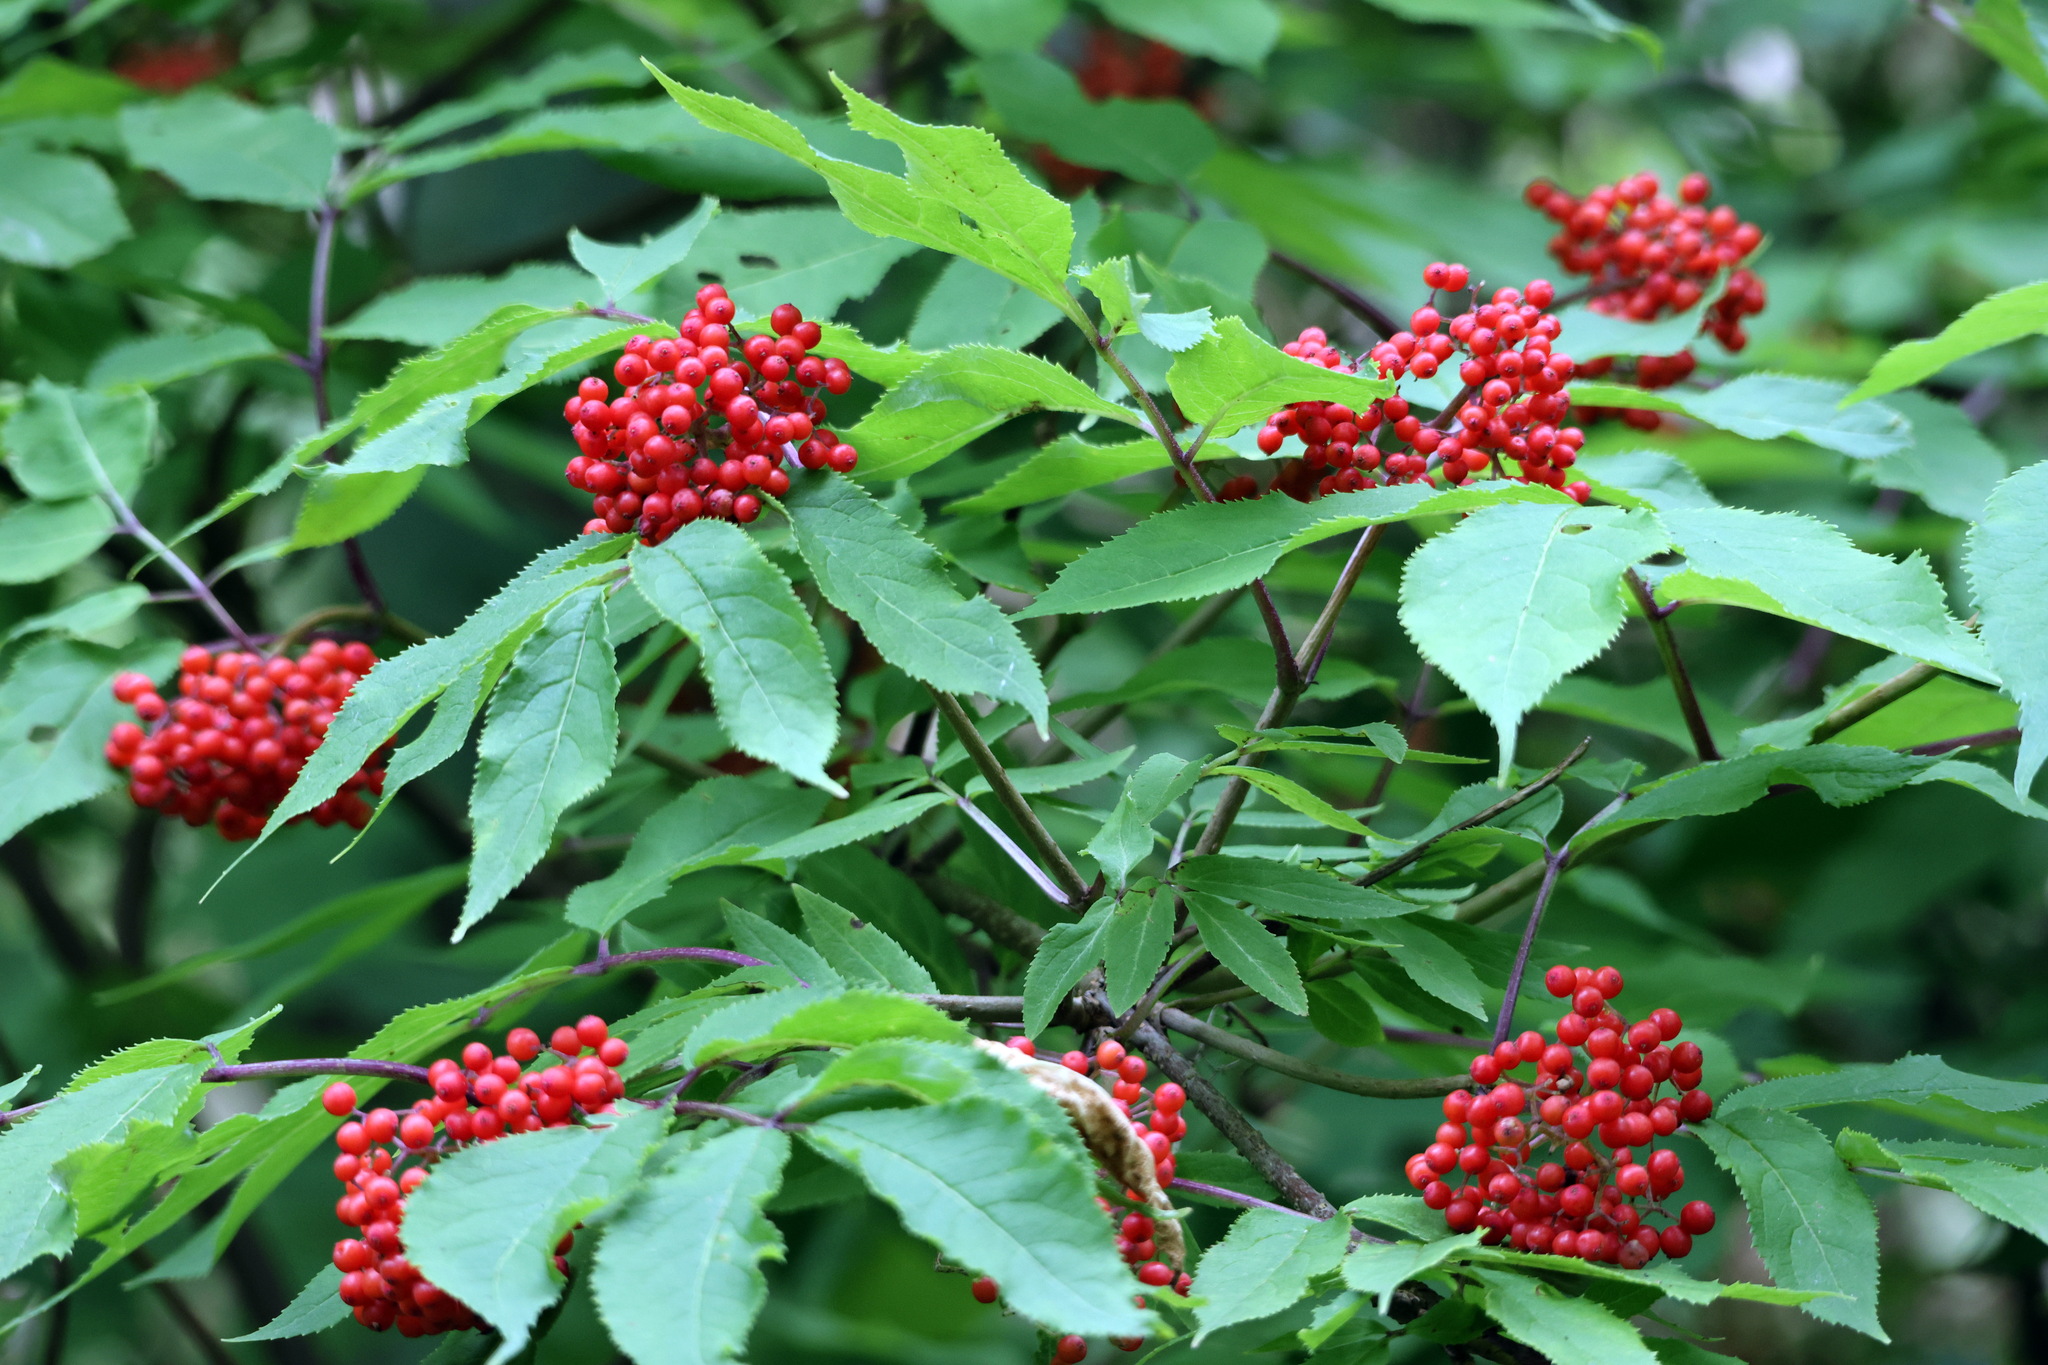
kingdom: Plantae
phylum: Tracheophyta
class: Magnoliopsida
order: Dipsacales
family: Viburnaceae
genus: Sambucus
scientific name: Sambucus racemosa
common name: Red-berried elder
